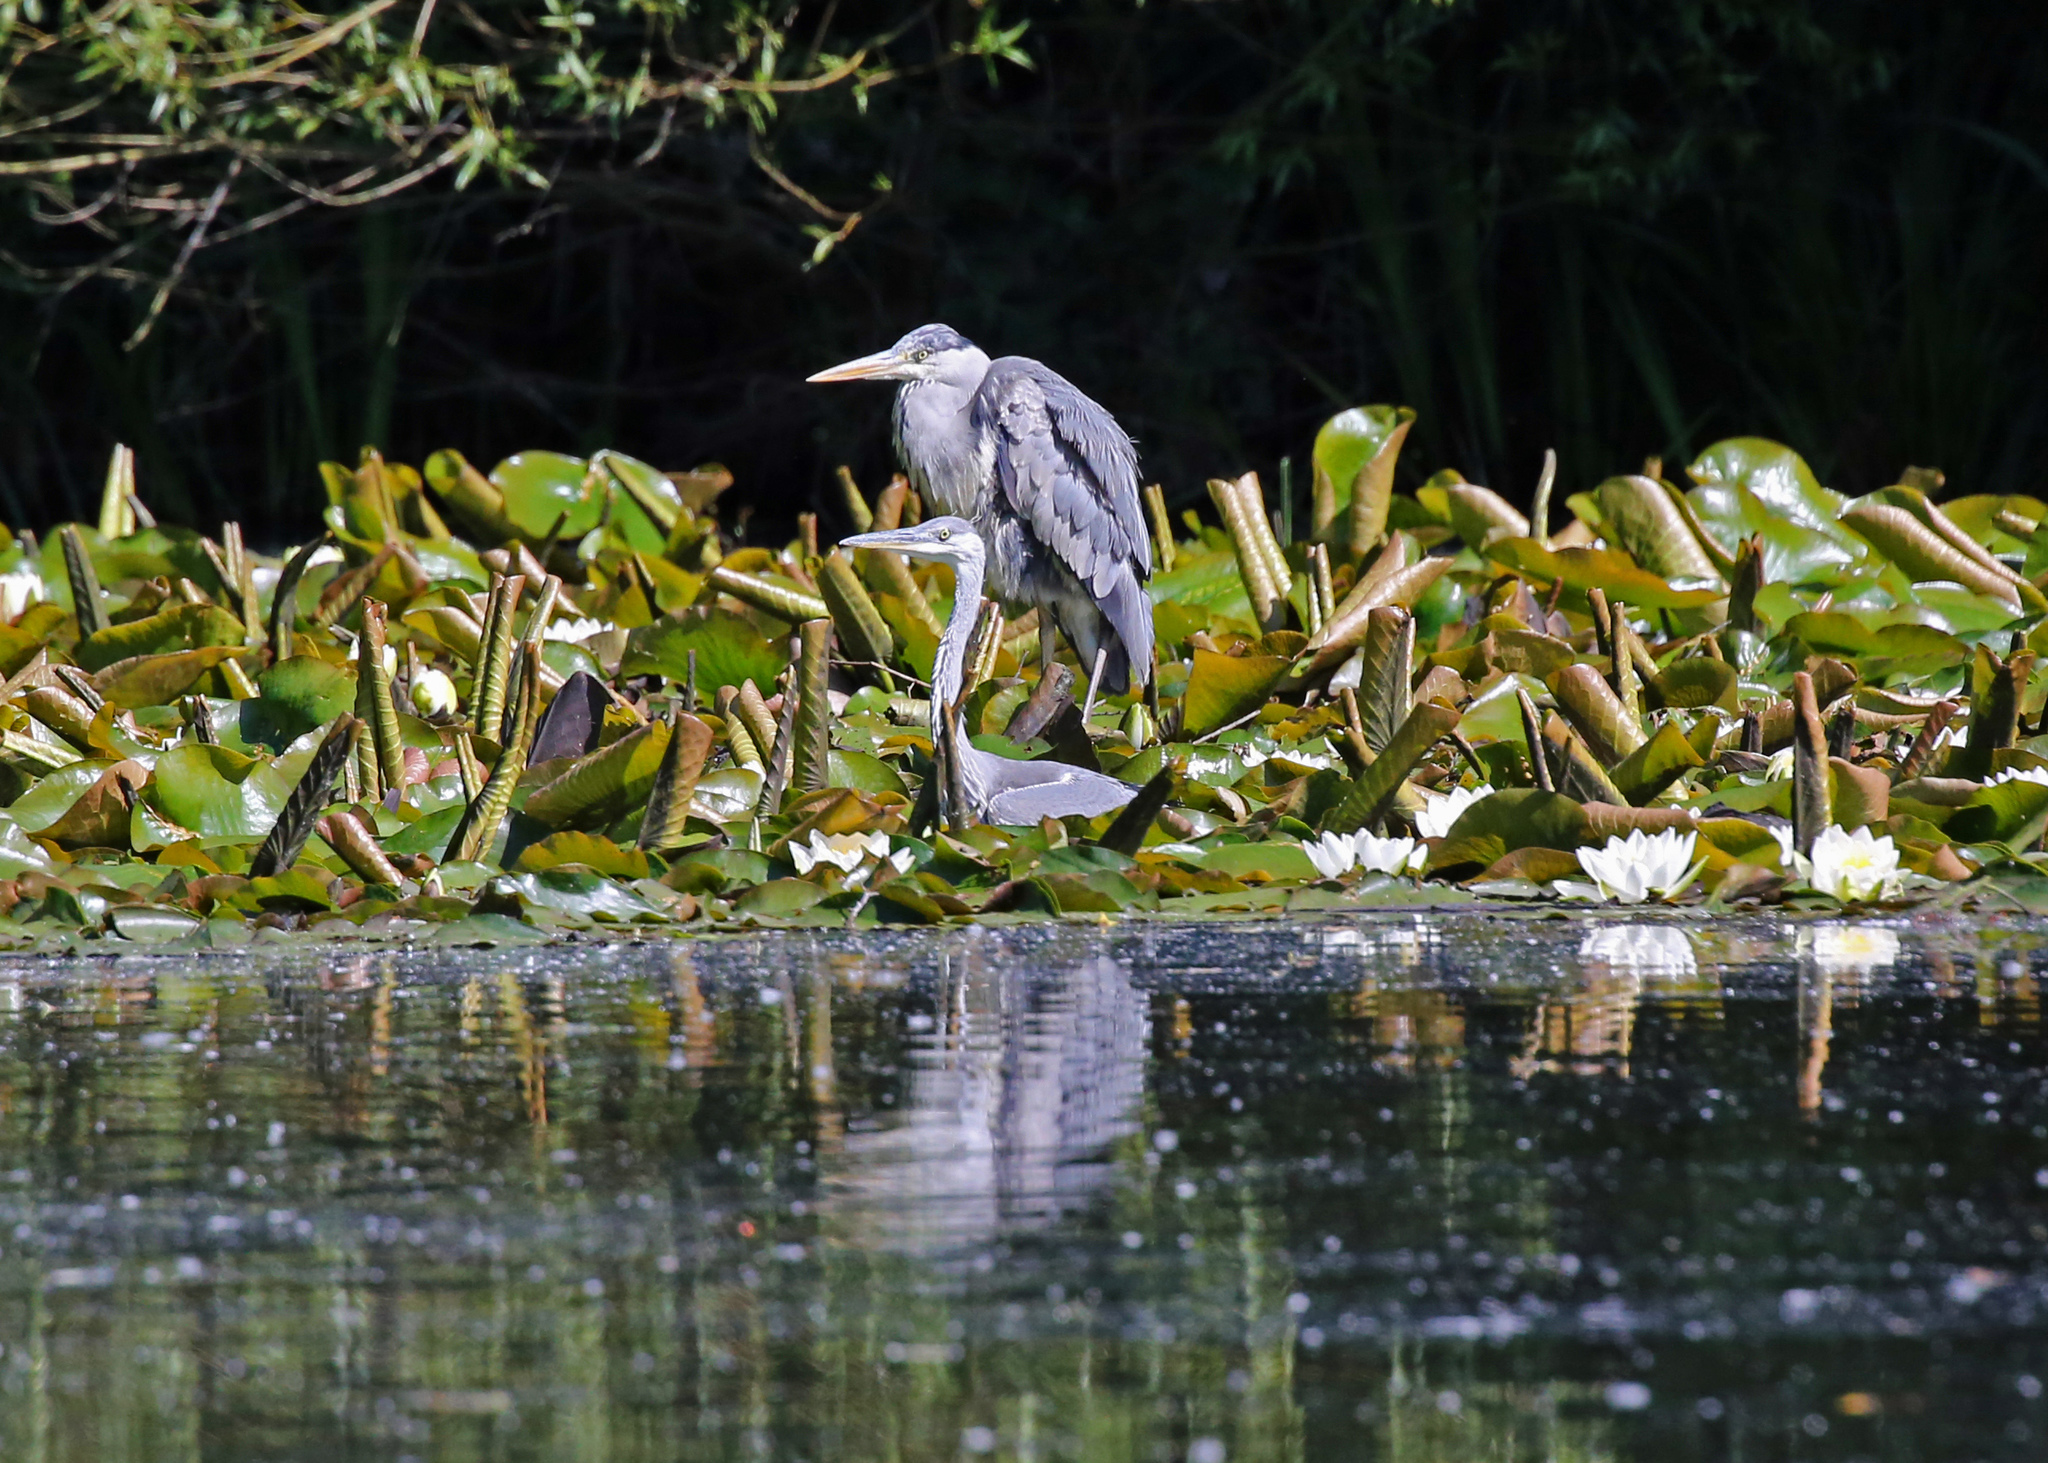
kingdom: Animalia
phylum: Chordata
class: Aves
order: Pelecaniformes
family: Ardeidae
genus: Ardea
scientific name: Ardea cinerea
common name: Grey heron
